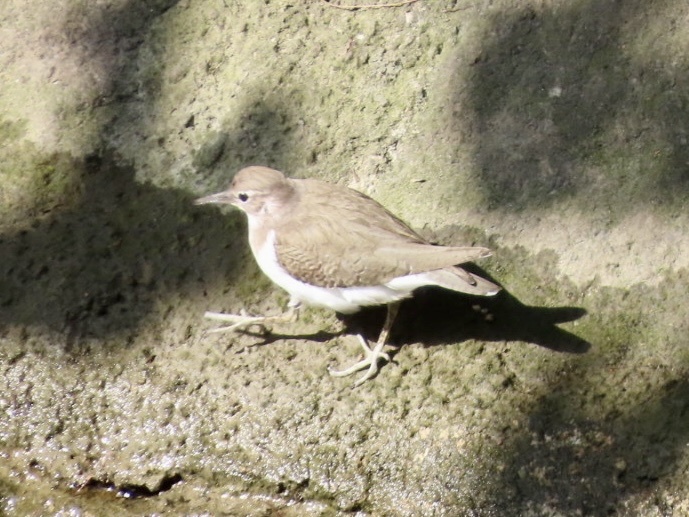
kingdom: Animalia
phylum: Chordata
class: Aves
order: Charadriiformes
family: Scolopacidae
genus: Actitis
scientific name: Actitis hypoleucos
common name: Common sandpiper
